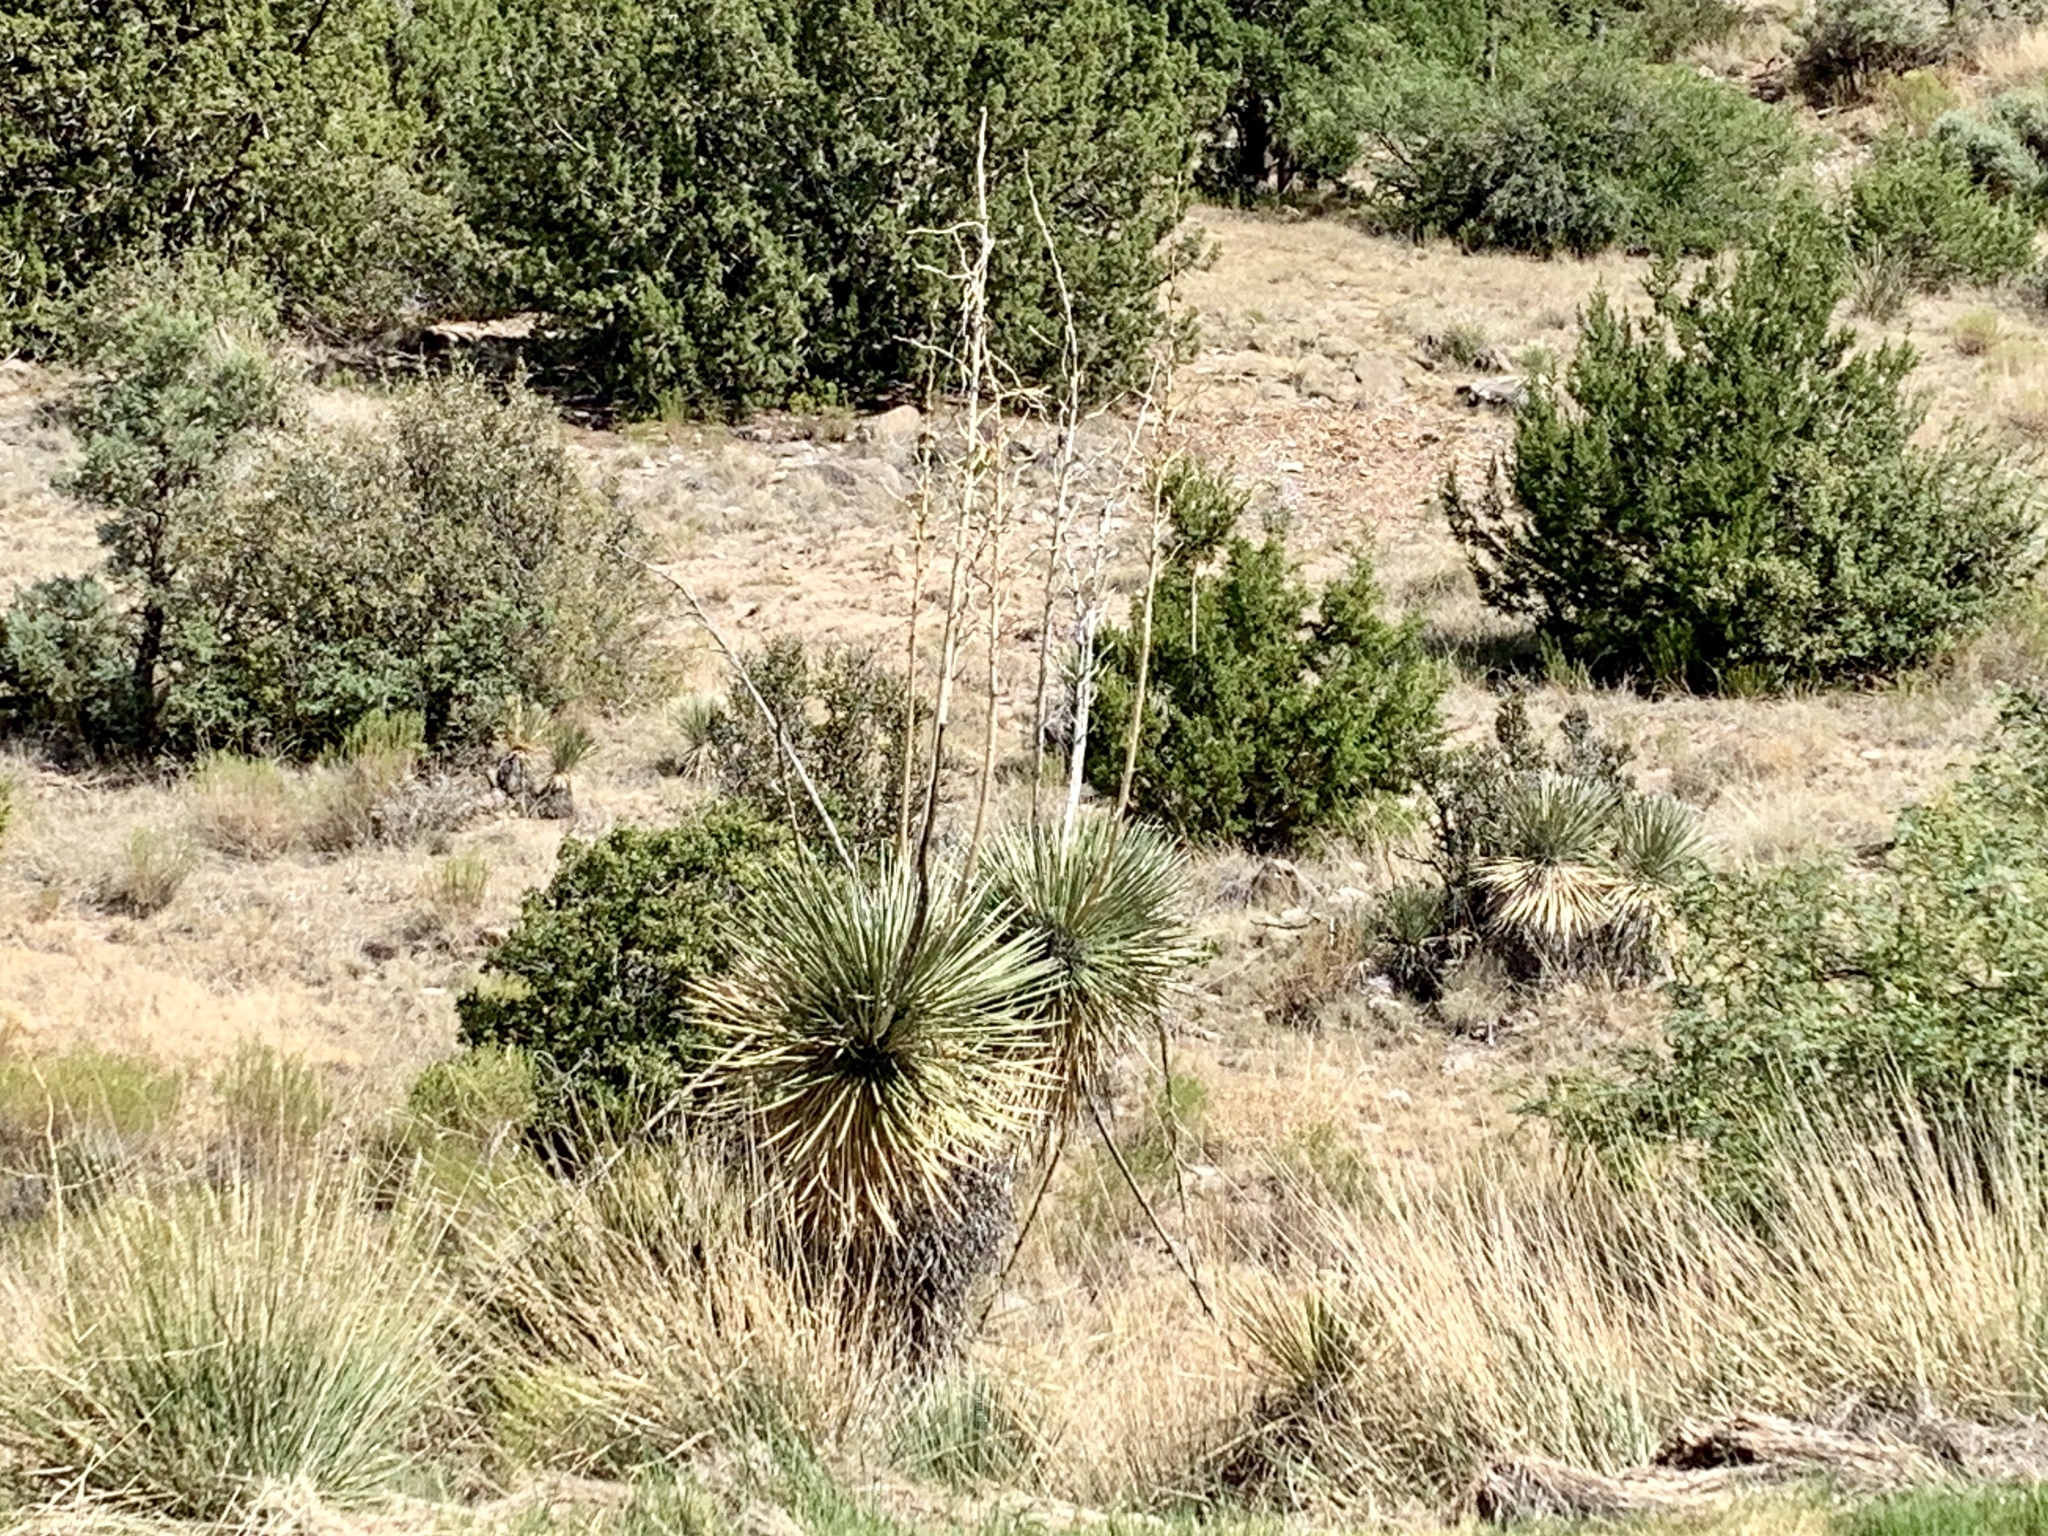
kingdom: Plantae
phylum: Tracheophyta
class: Liliopsida
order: Asparagales
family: Asparagaceae
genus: Yucca
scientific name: Yucca elata
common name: Palmella
